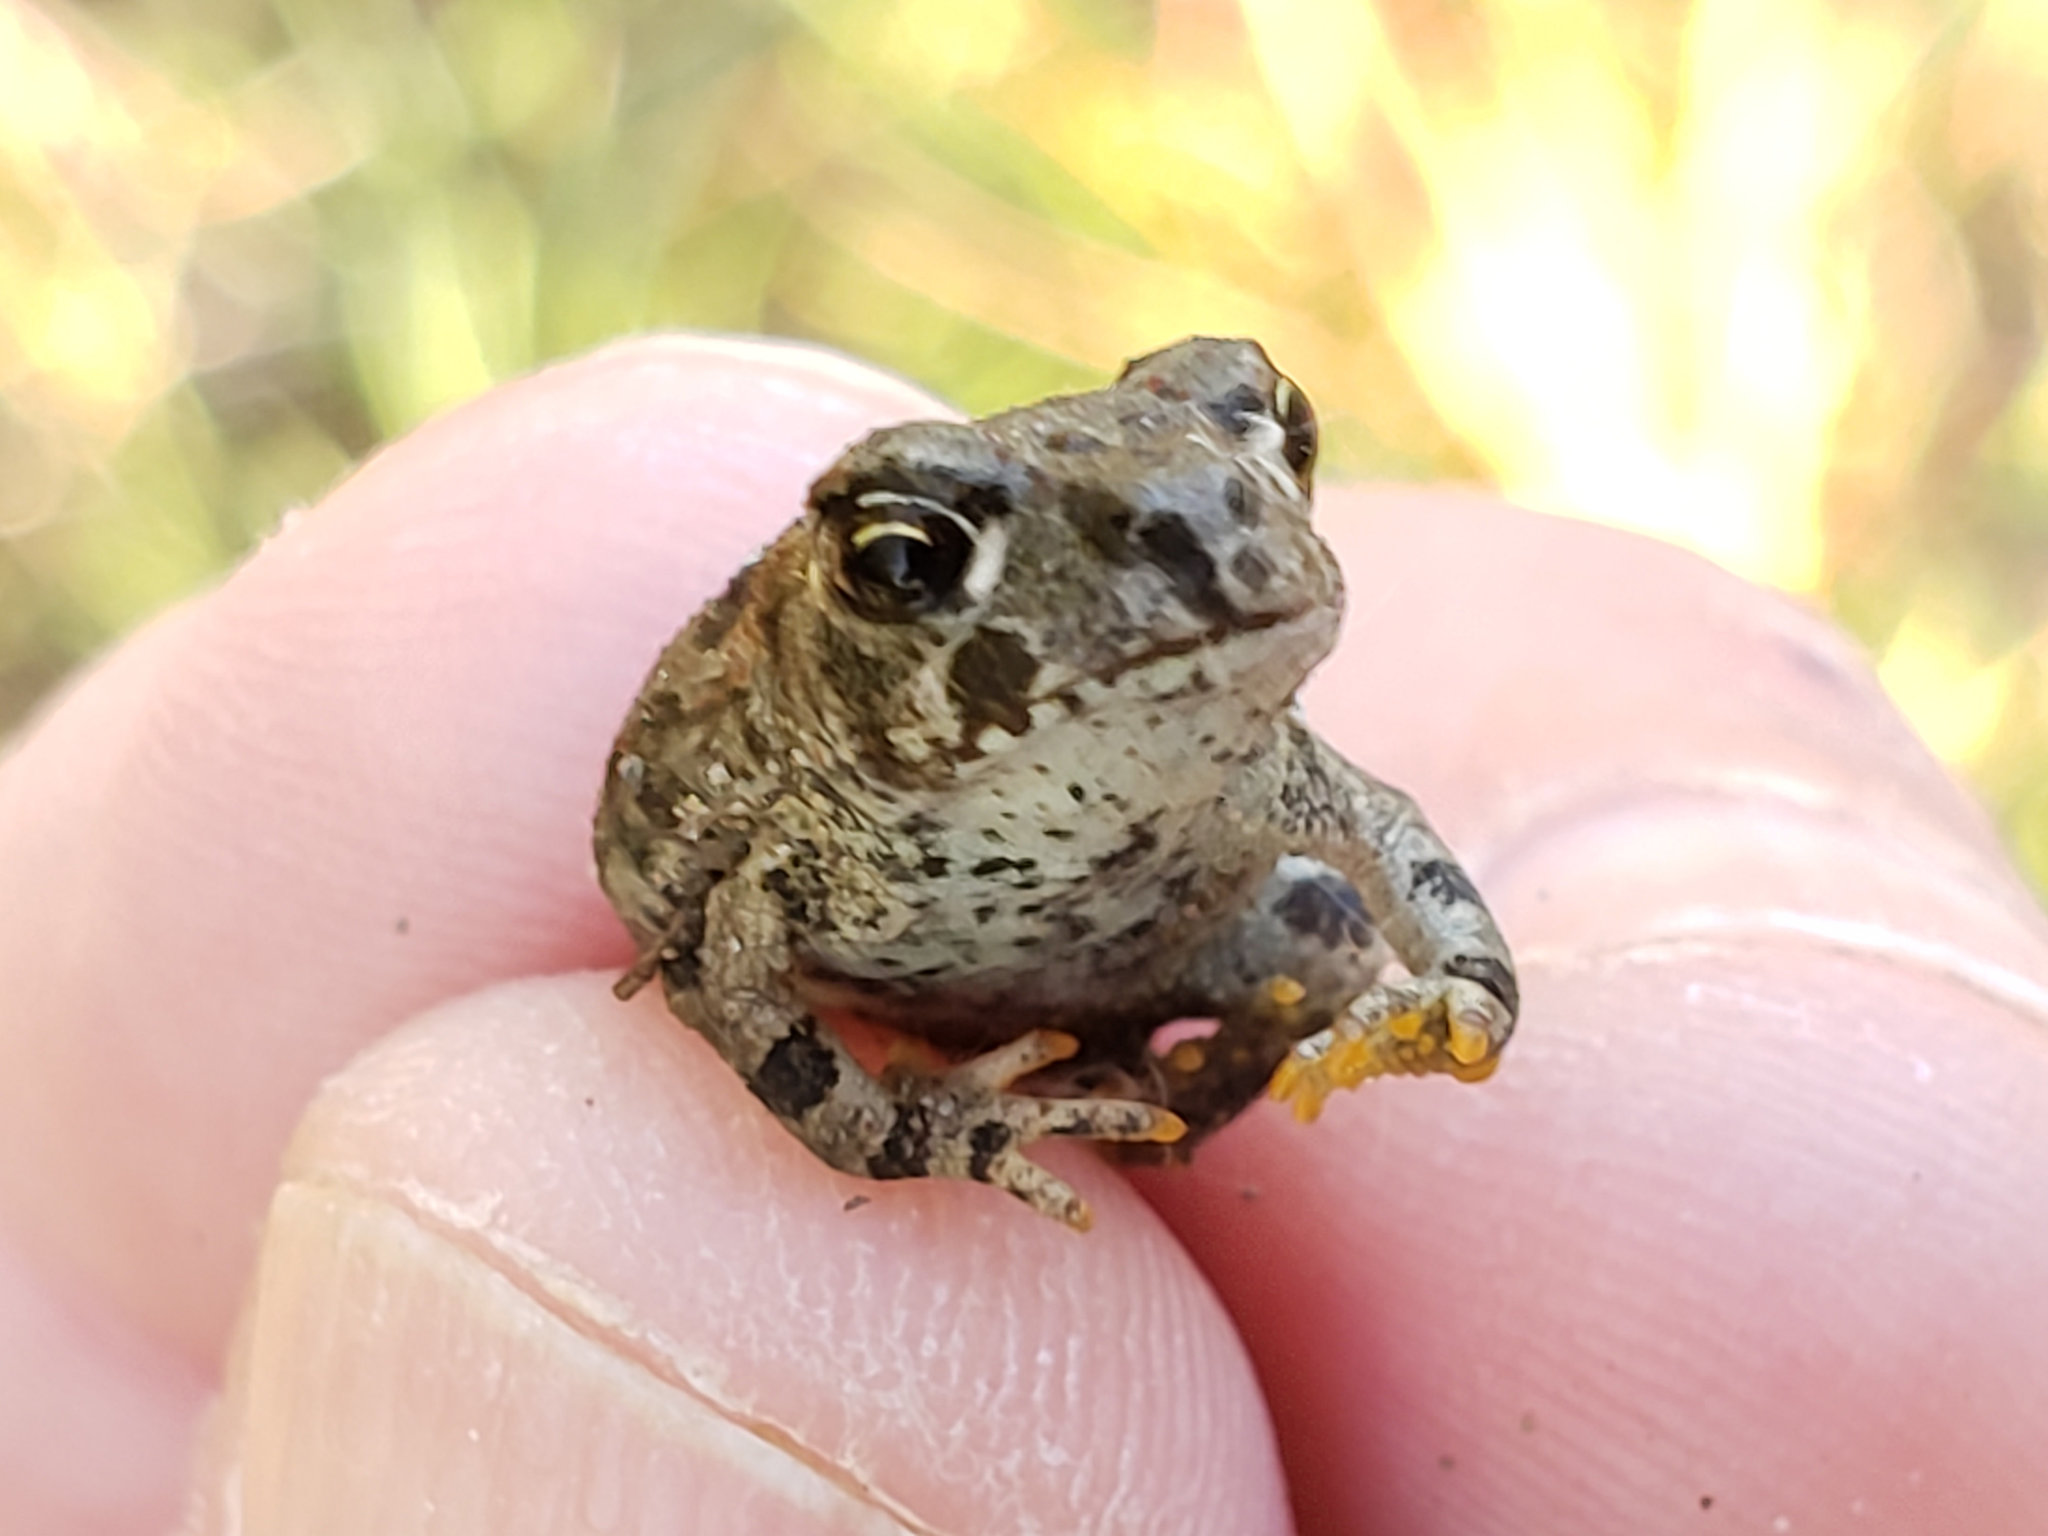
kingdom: Animalia
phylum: Chordata
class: Amphibia
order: Anura
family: Bufonidae
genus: Anaxyrus
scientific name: Anaxyrus boreas
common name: Western toad
